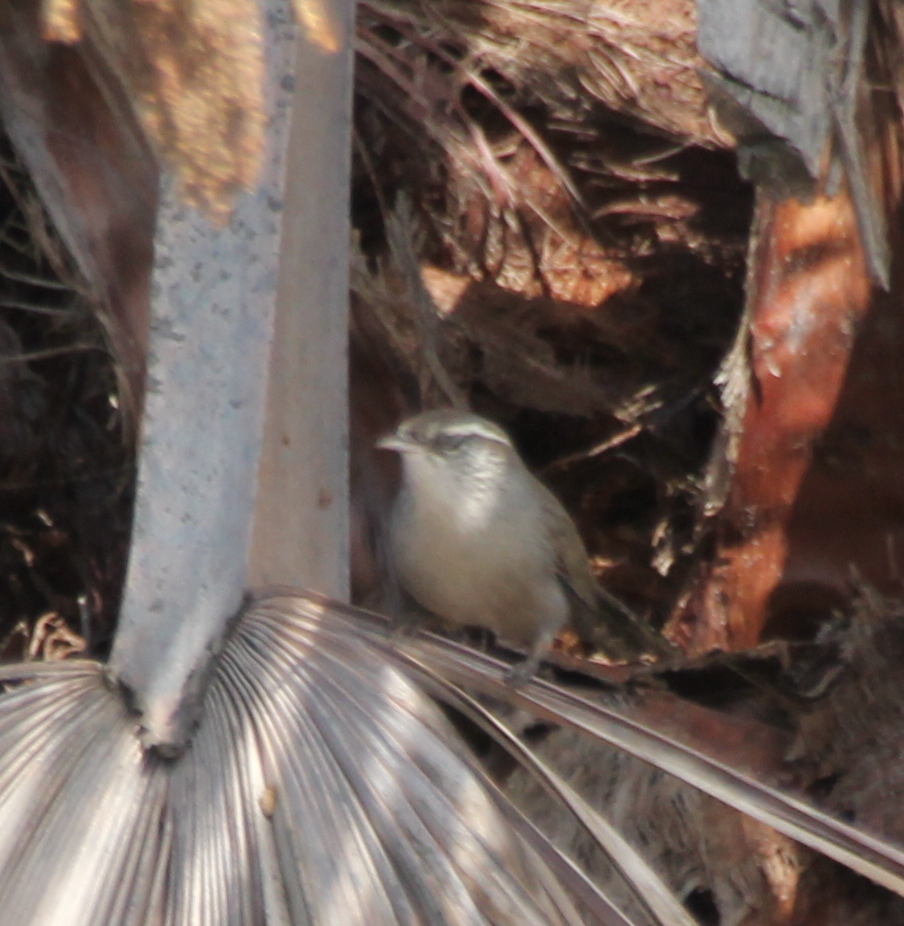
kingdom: Animalia
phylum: Chordata
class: Aves
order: Passeriformes
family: Troglodytidae
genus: Thryomanes
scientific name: Thryomanes bewickii
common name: Bewick's wren
